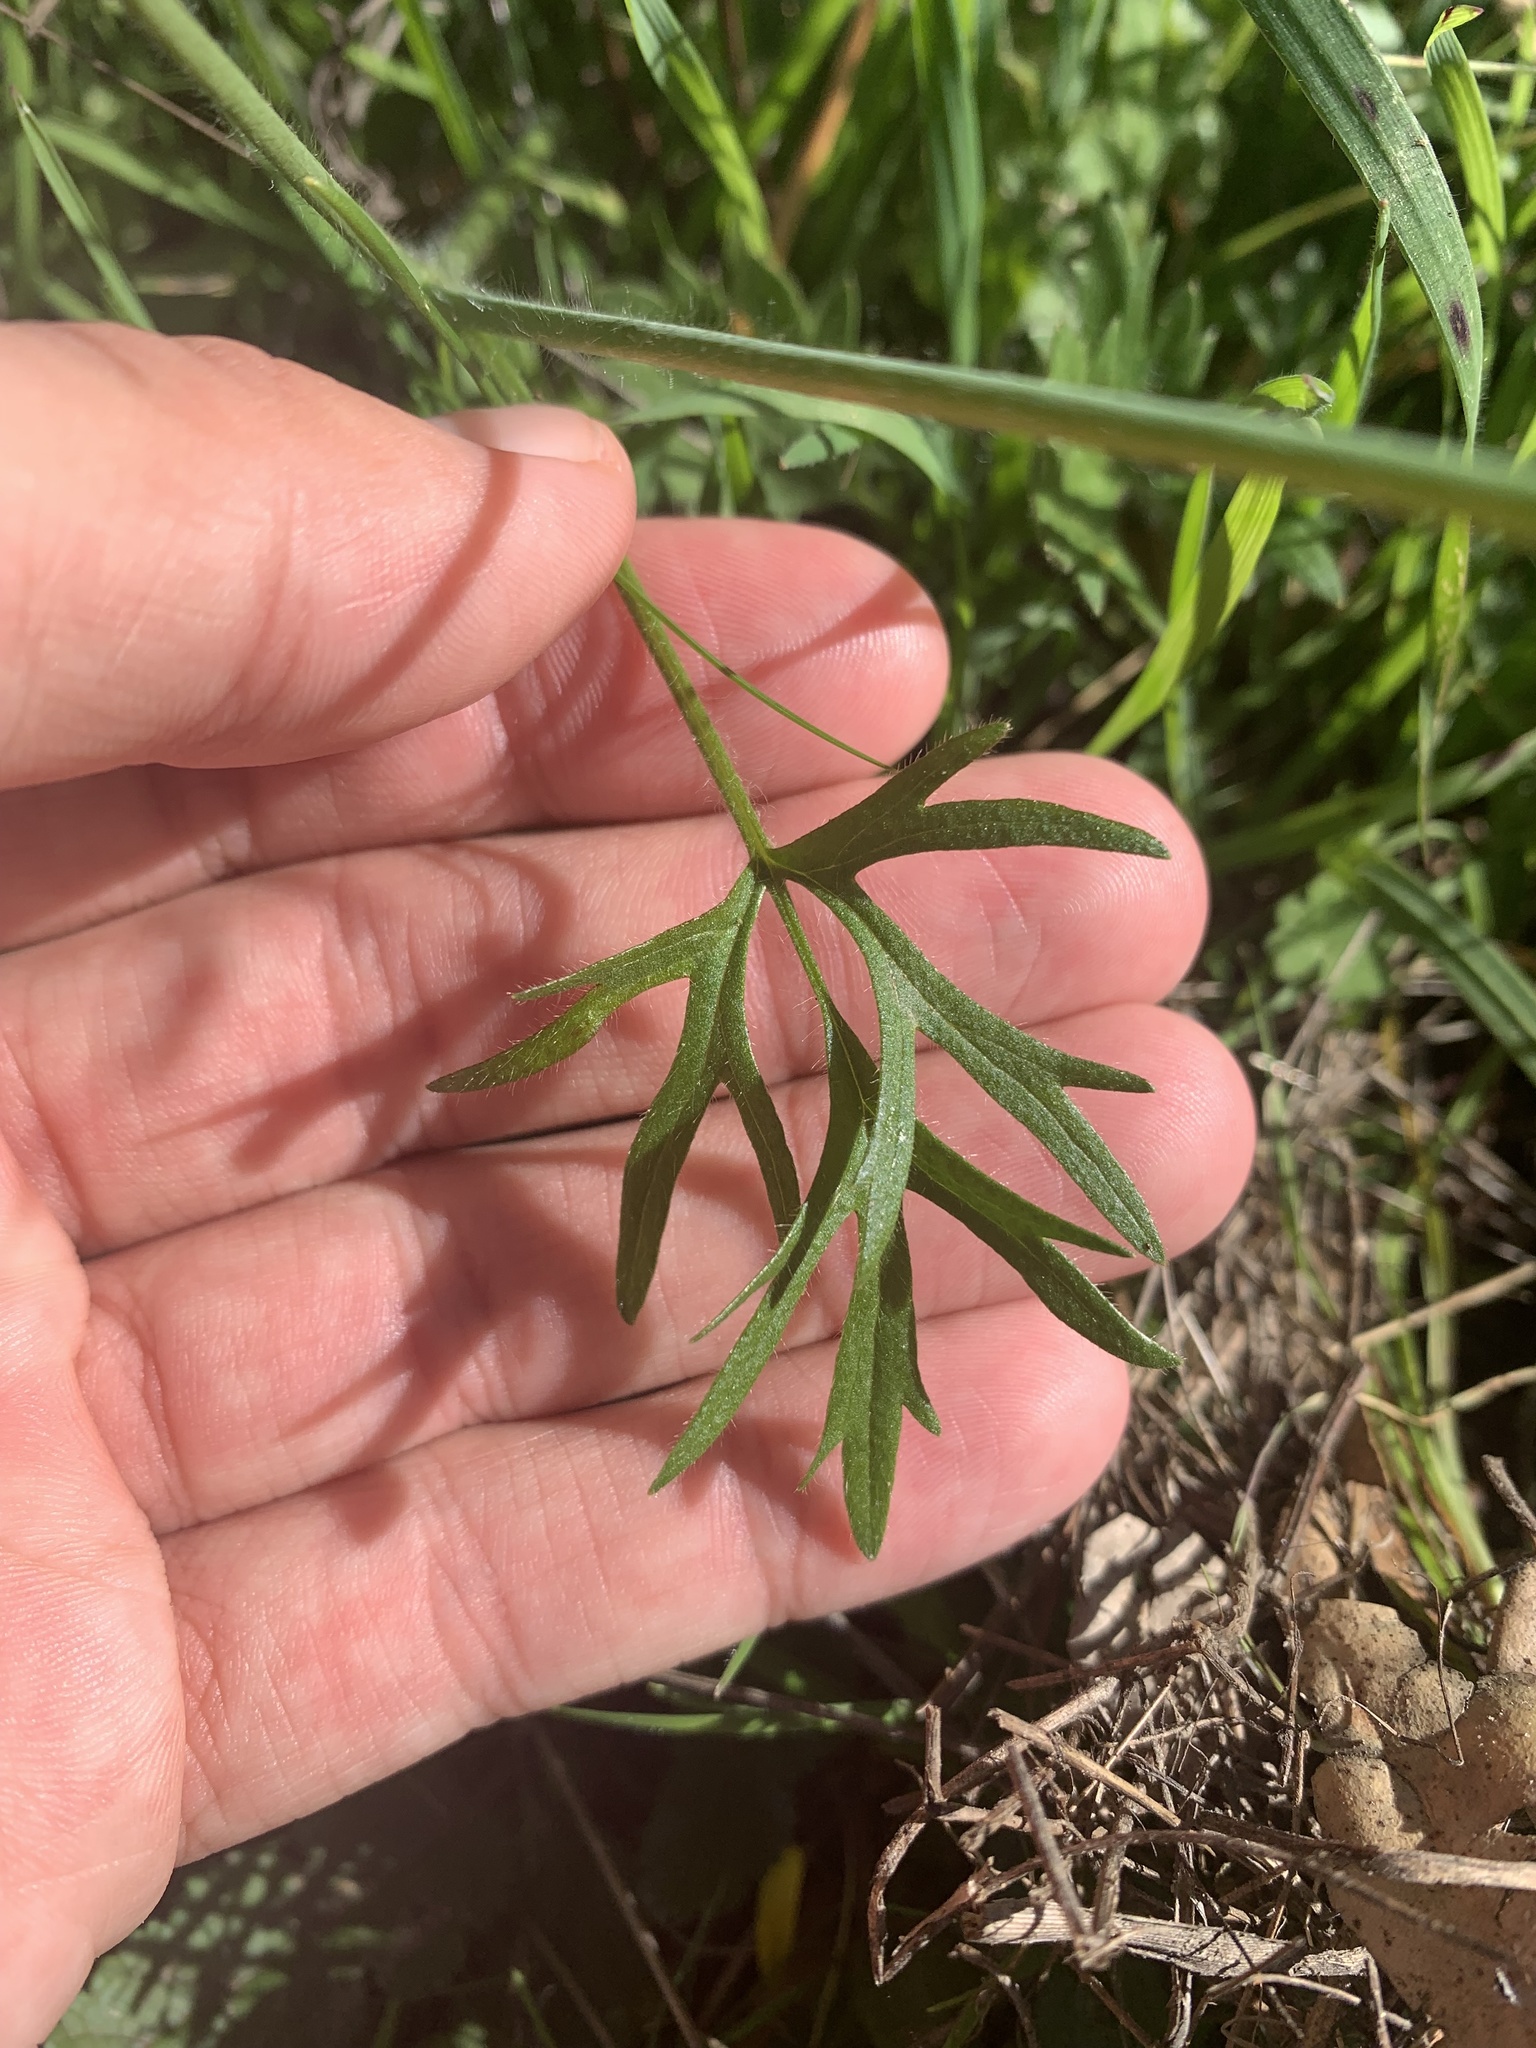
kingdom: Plantae
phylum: Tracheophyta
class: Magnoliopsida
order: Ranunculales
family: Ranunculaceae
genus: Ranunculus
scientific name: Ranunculus californicus
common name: California buttercup
